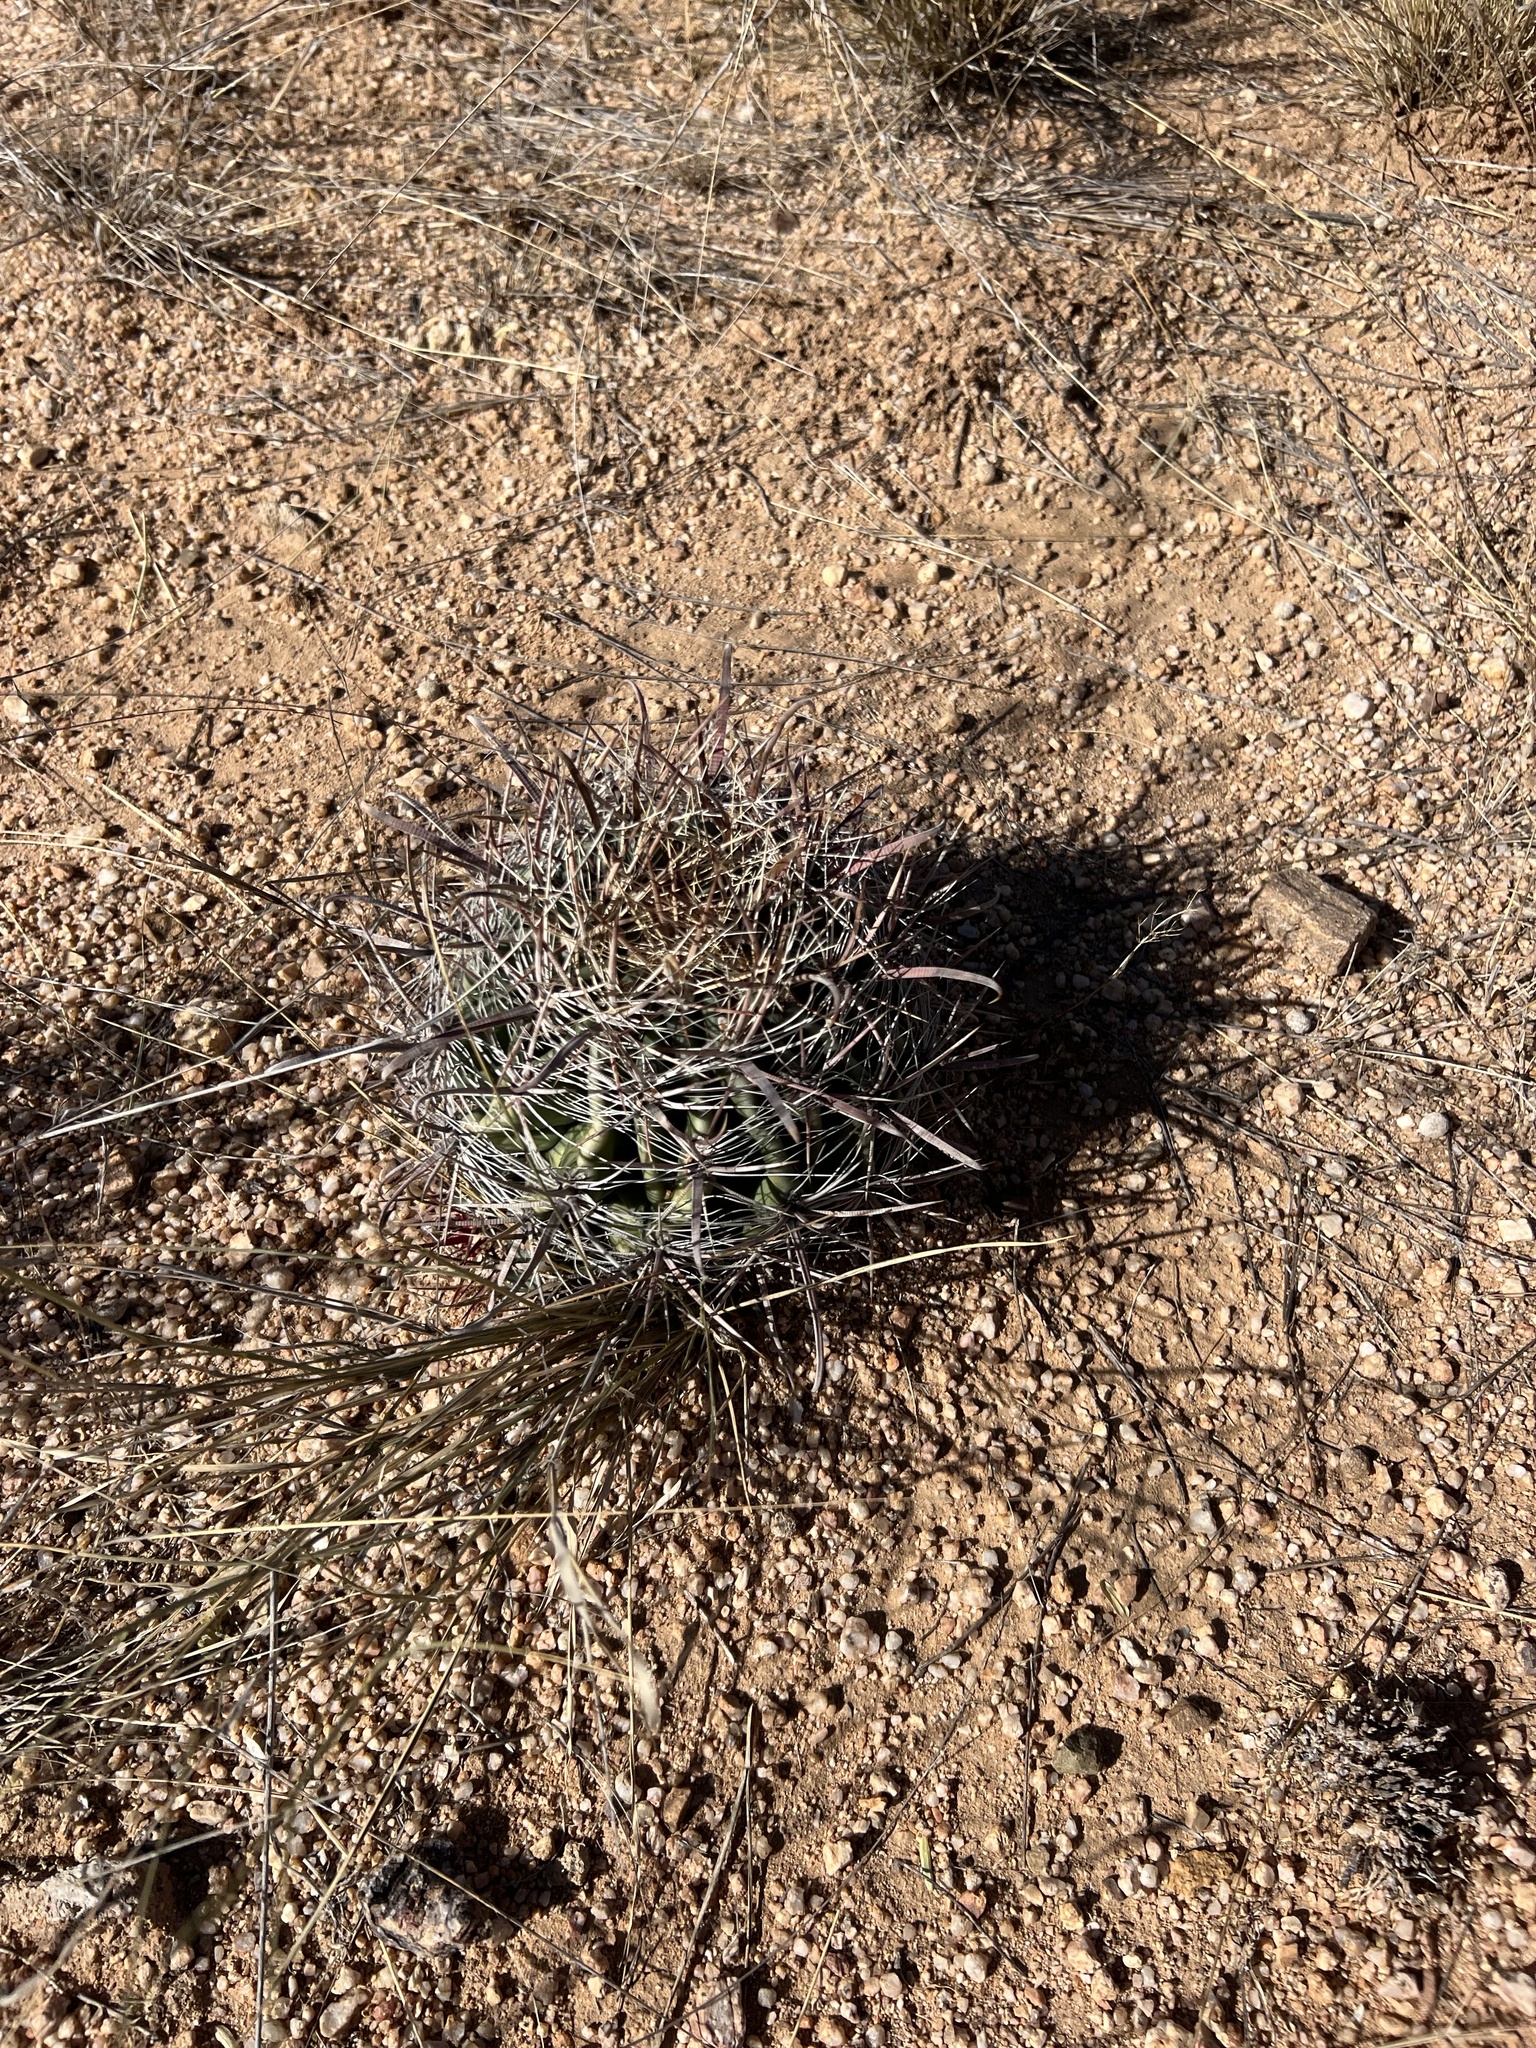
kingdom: Plantae
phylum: Tracheophyta
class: Magnoliopsida
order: Caryophyllales
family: Cactaceae
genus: Ferocactus
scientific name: Ferocactus wislizeni
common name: Candy barrel cactus
